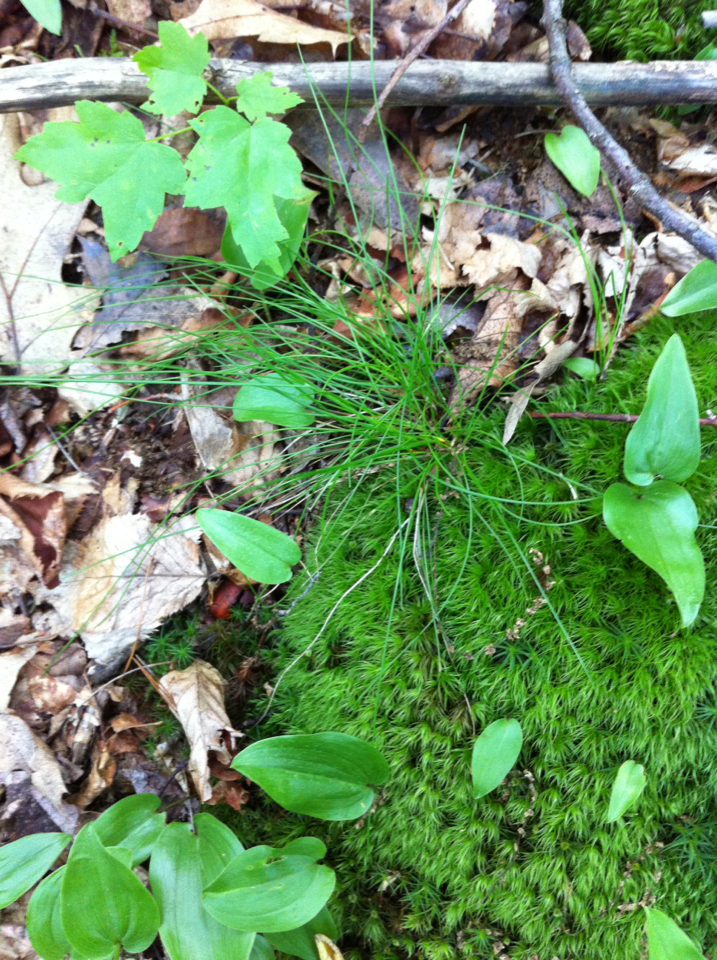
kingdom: Plantae
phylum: Tracheophyta
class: Liliopsida
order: Poales
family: Poaceae
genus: Avenella
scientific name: Avenella flexuosa
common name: Wavy hairgrass
